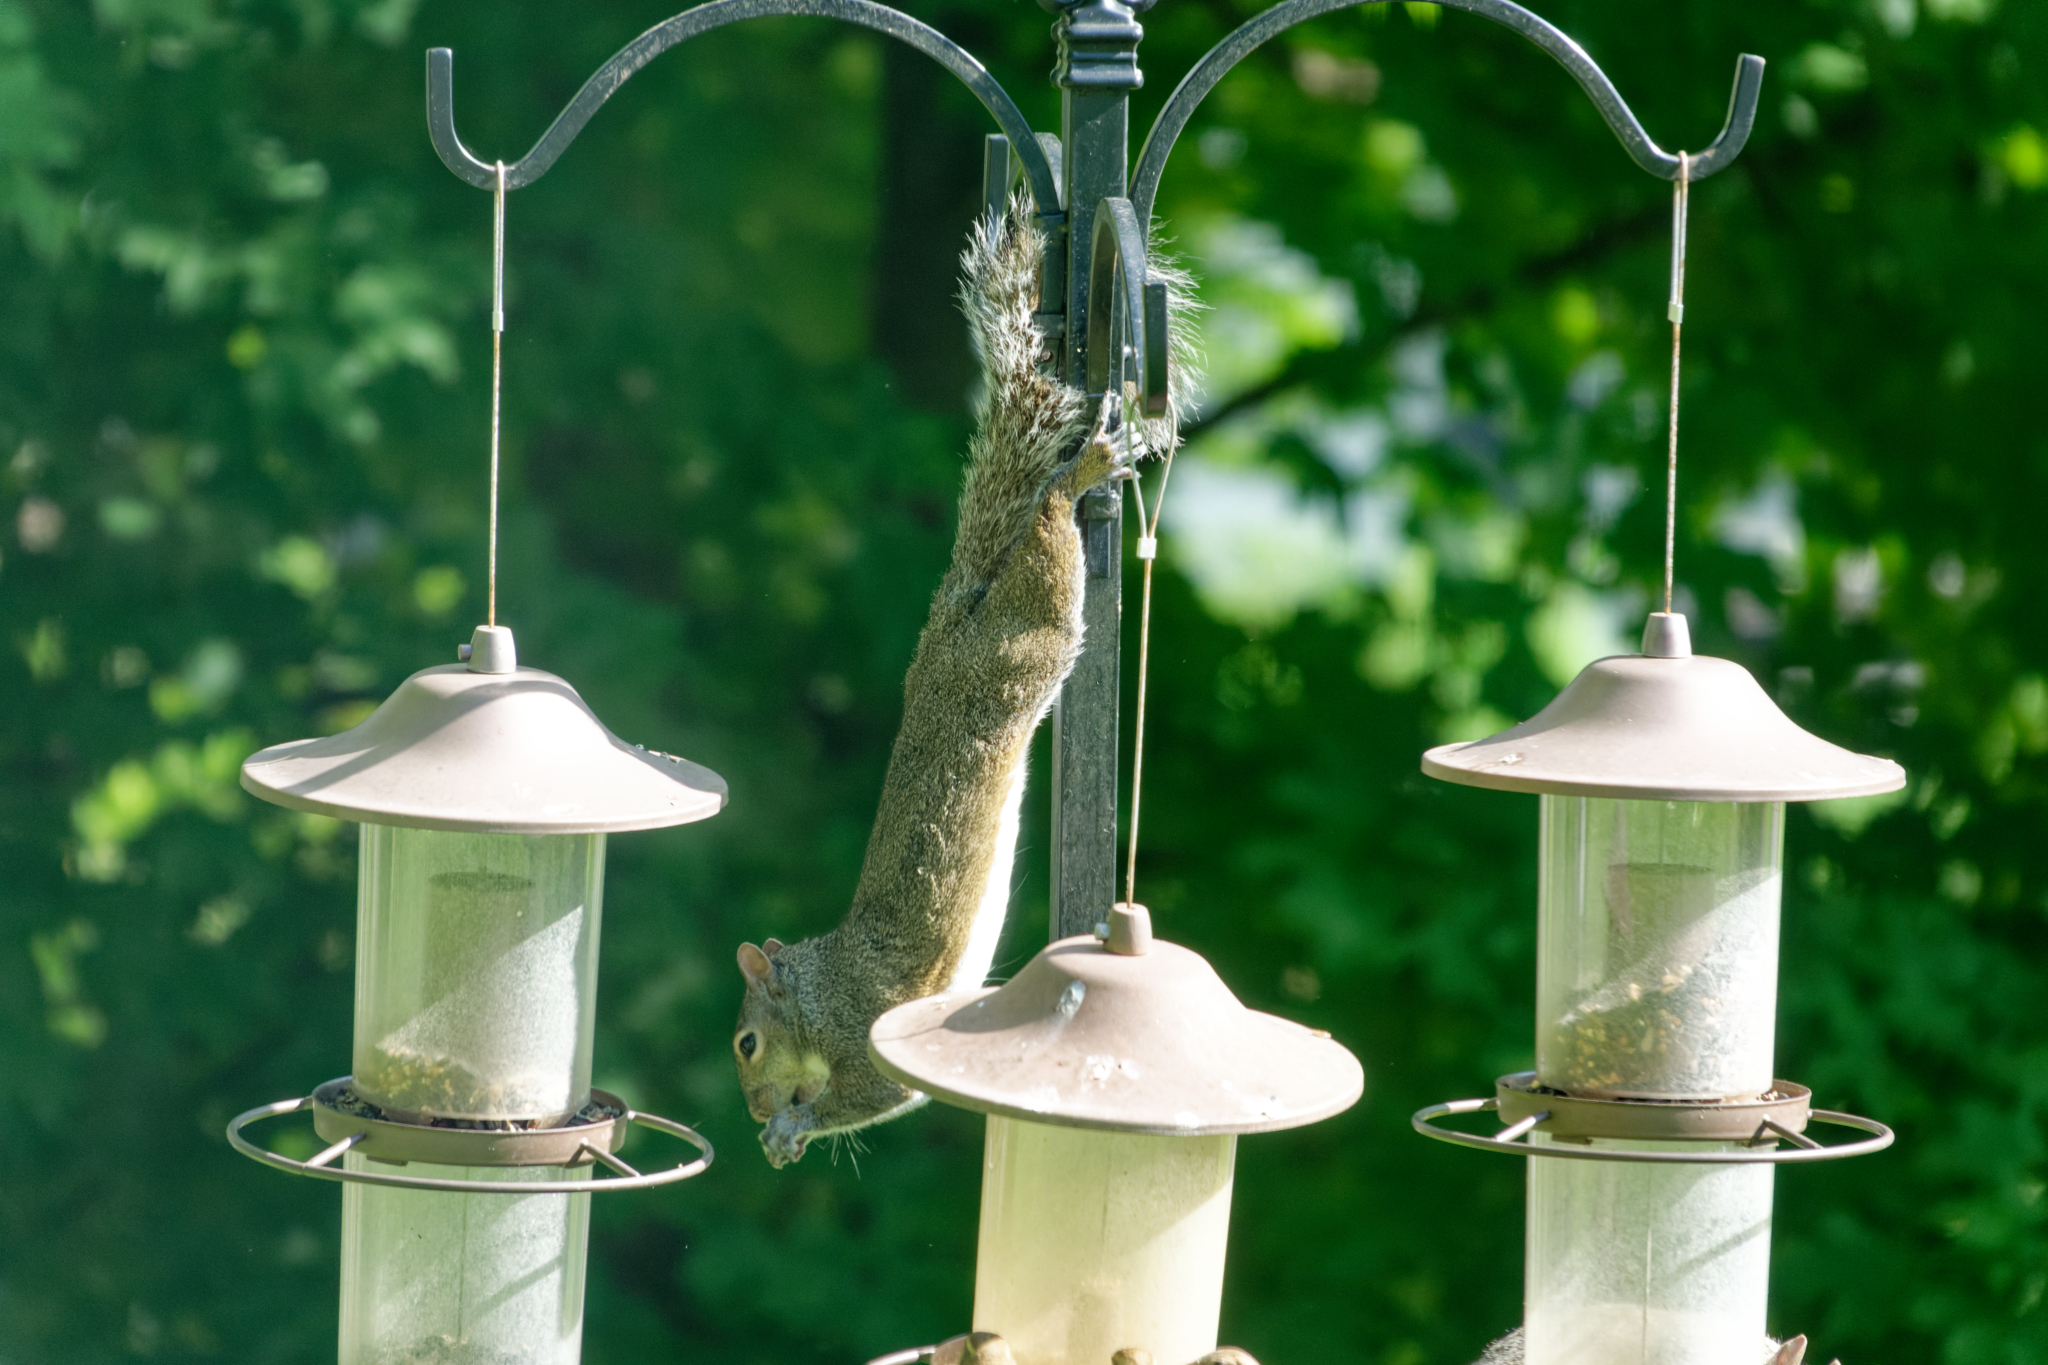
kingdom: Animalia
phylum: Chordata
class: Mammalia
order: Rodentia
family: Sciuridae
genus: Sciurus
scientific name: Sciurus carolinensis
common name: Eastern gray squirrel
